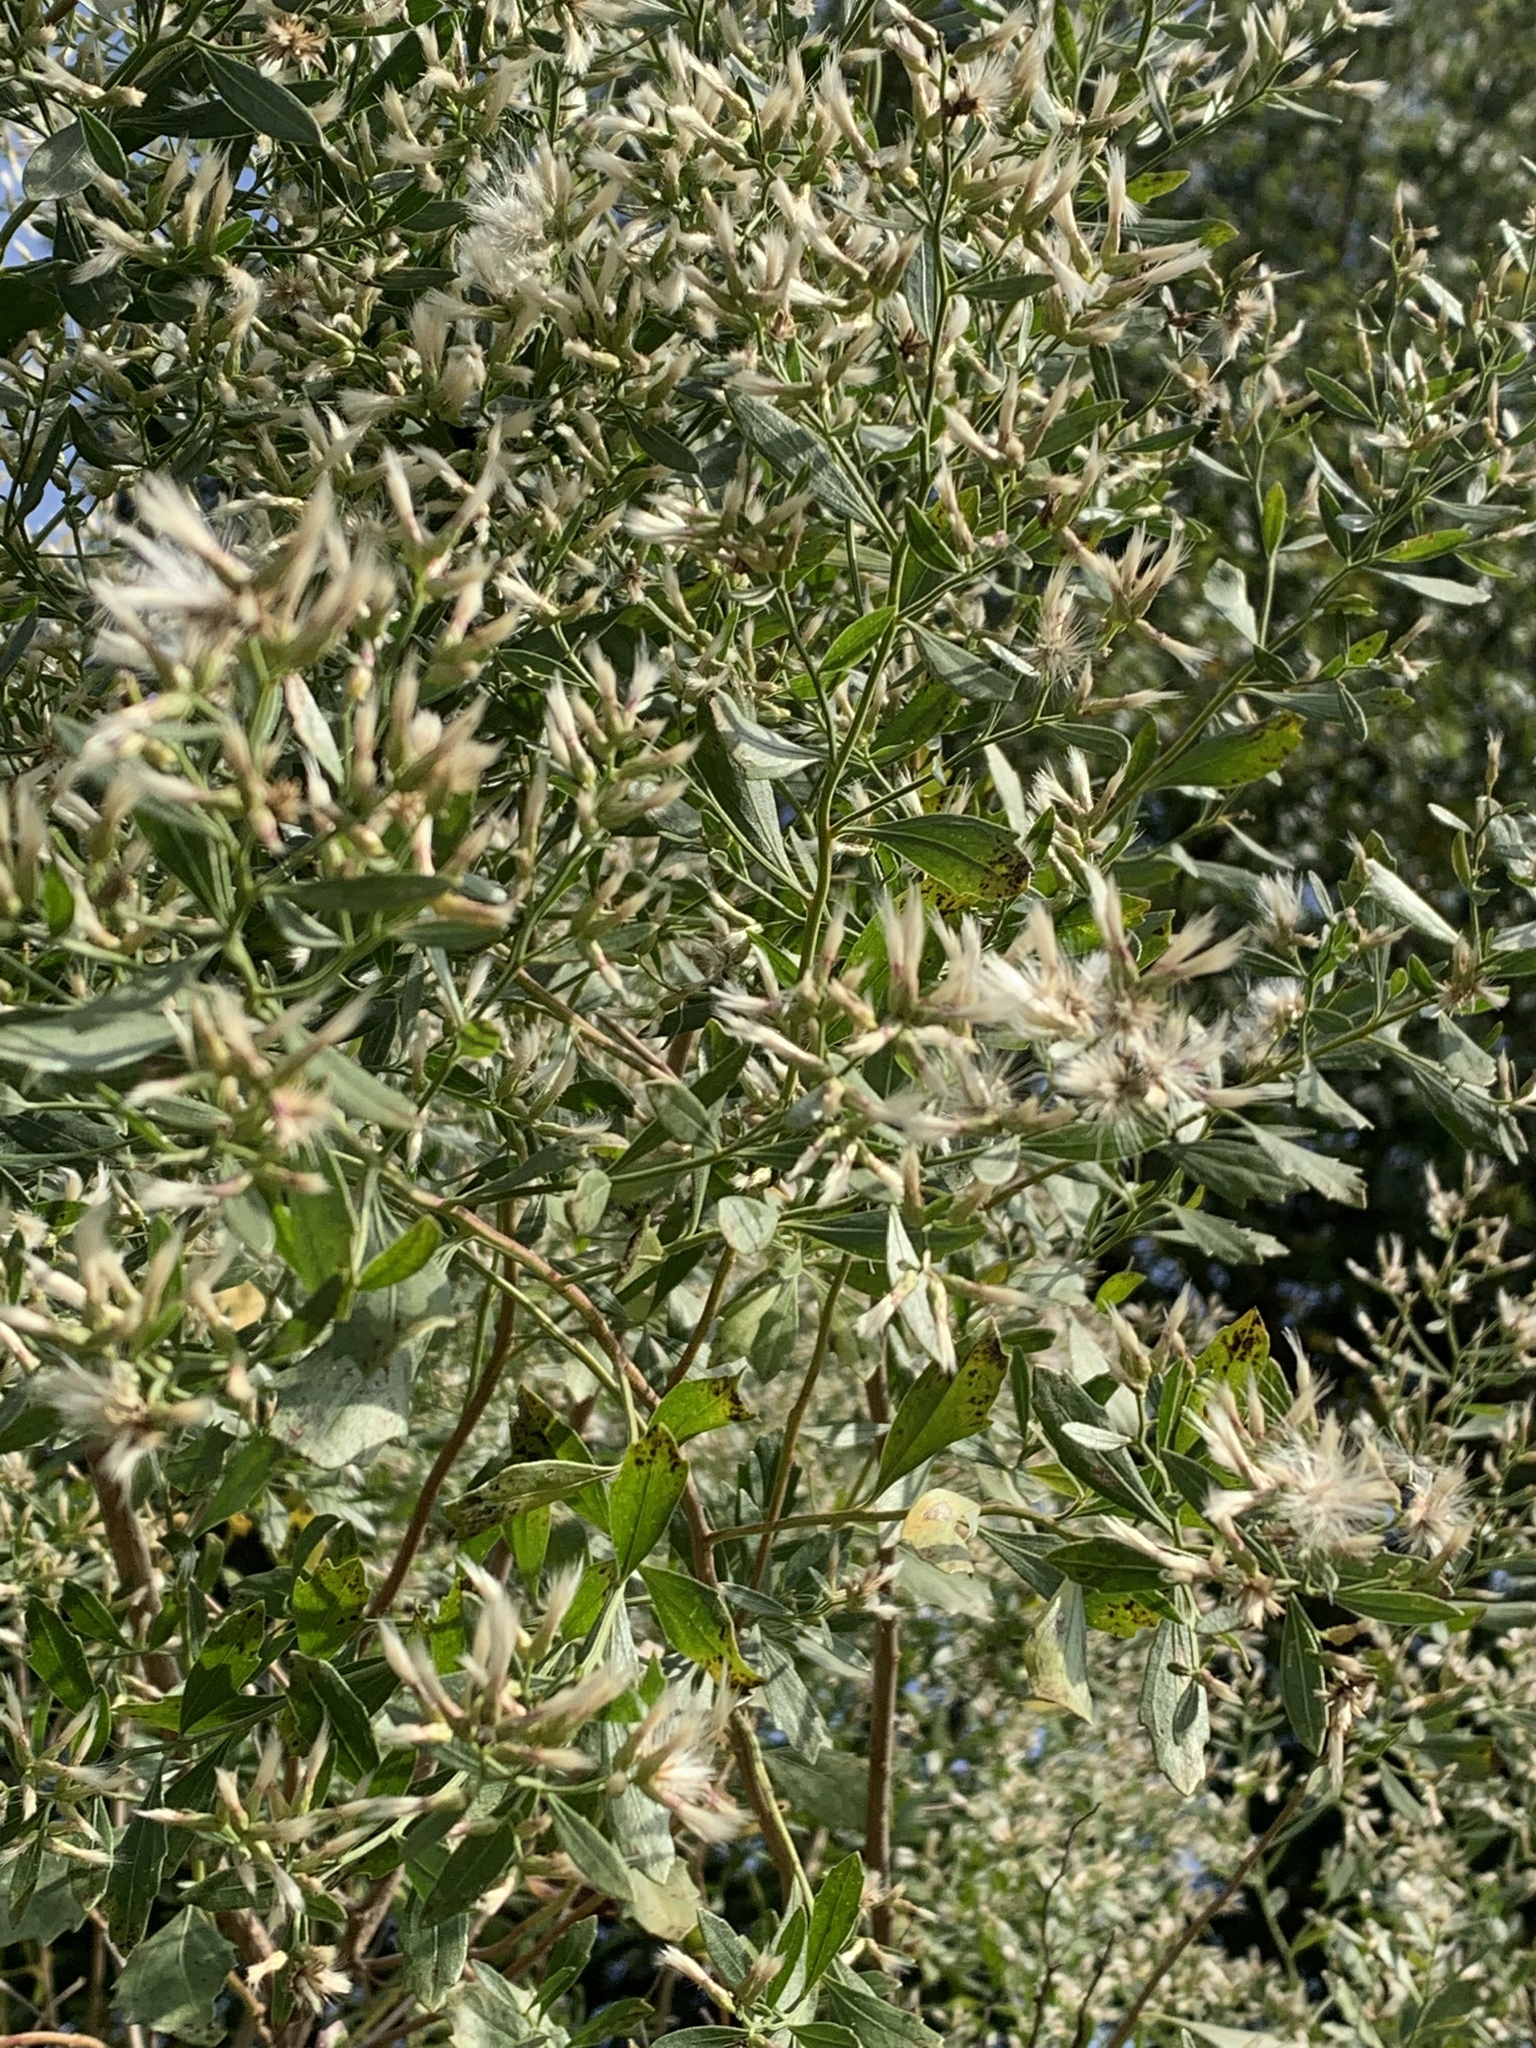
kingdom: Plantae
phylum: Tracheophyta
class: Magnoliopsida
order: Asterales
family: Asteraceae
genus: Baccharis
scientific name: Baccharis halimifolia
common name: Eastern baccharis
